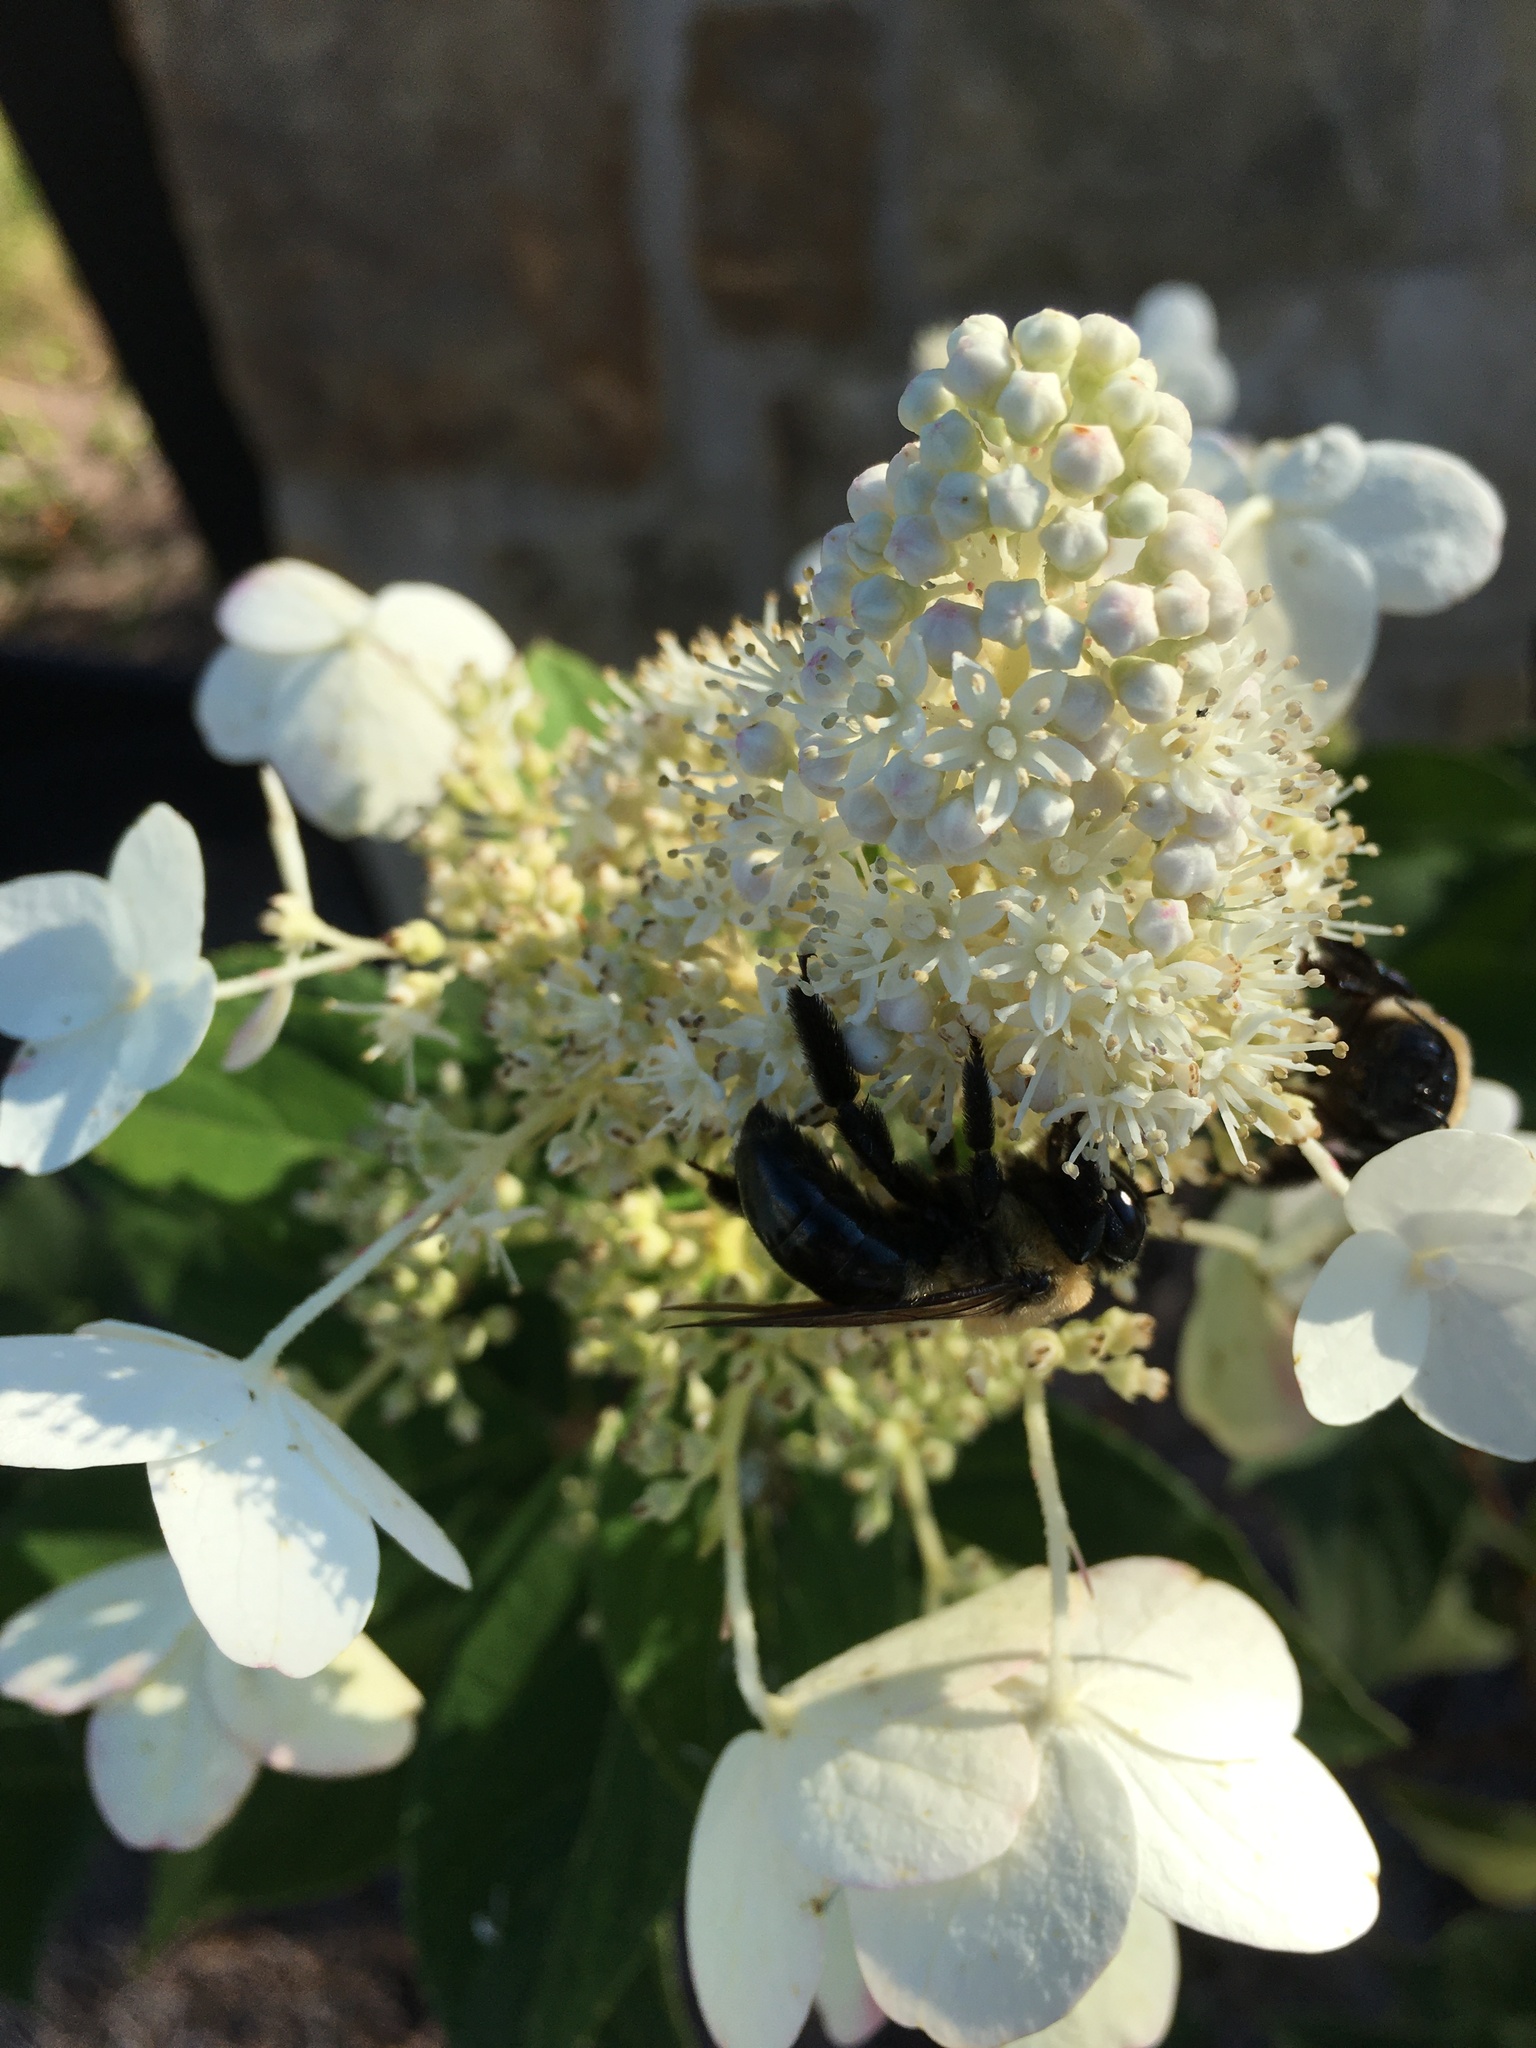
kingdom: Animalia
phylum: Arthropoda
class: Insecta
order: Hymenoptera
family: Apidae
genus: Xylocopa
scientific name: Xylocopa virginica
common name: Carpenter bee
